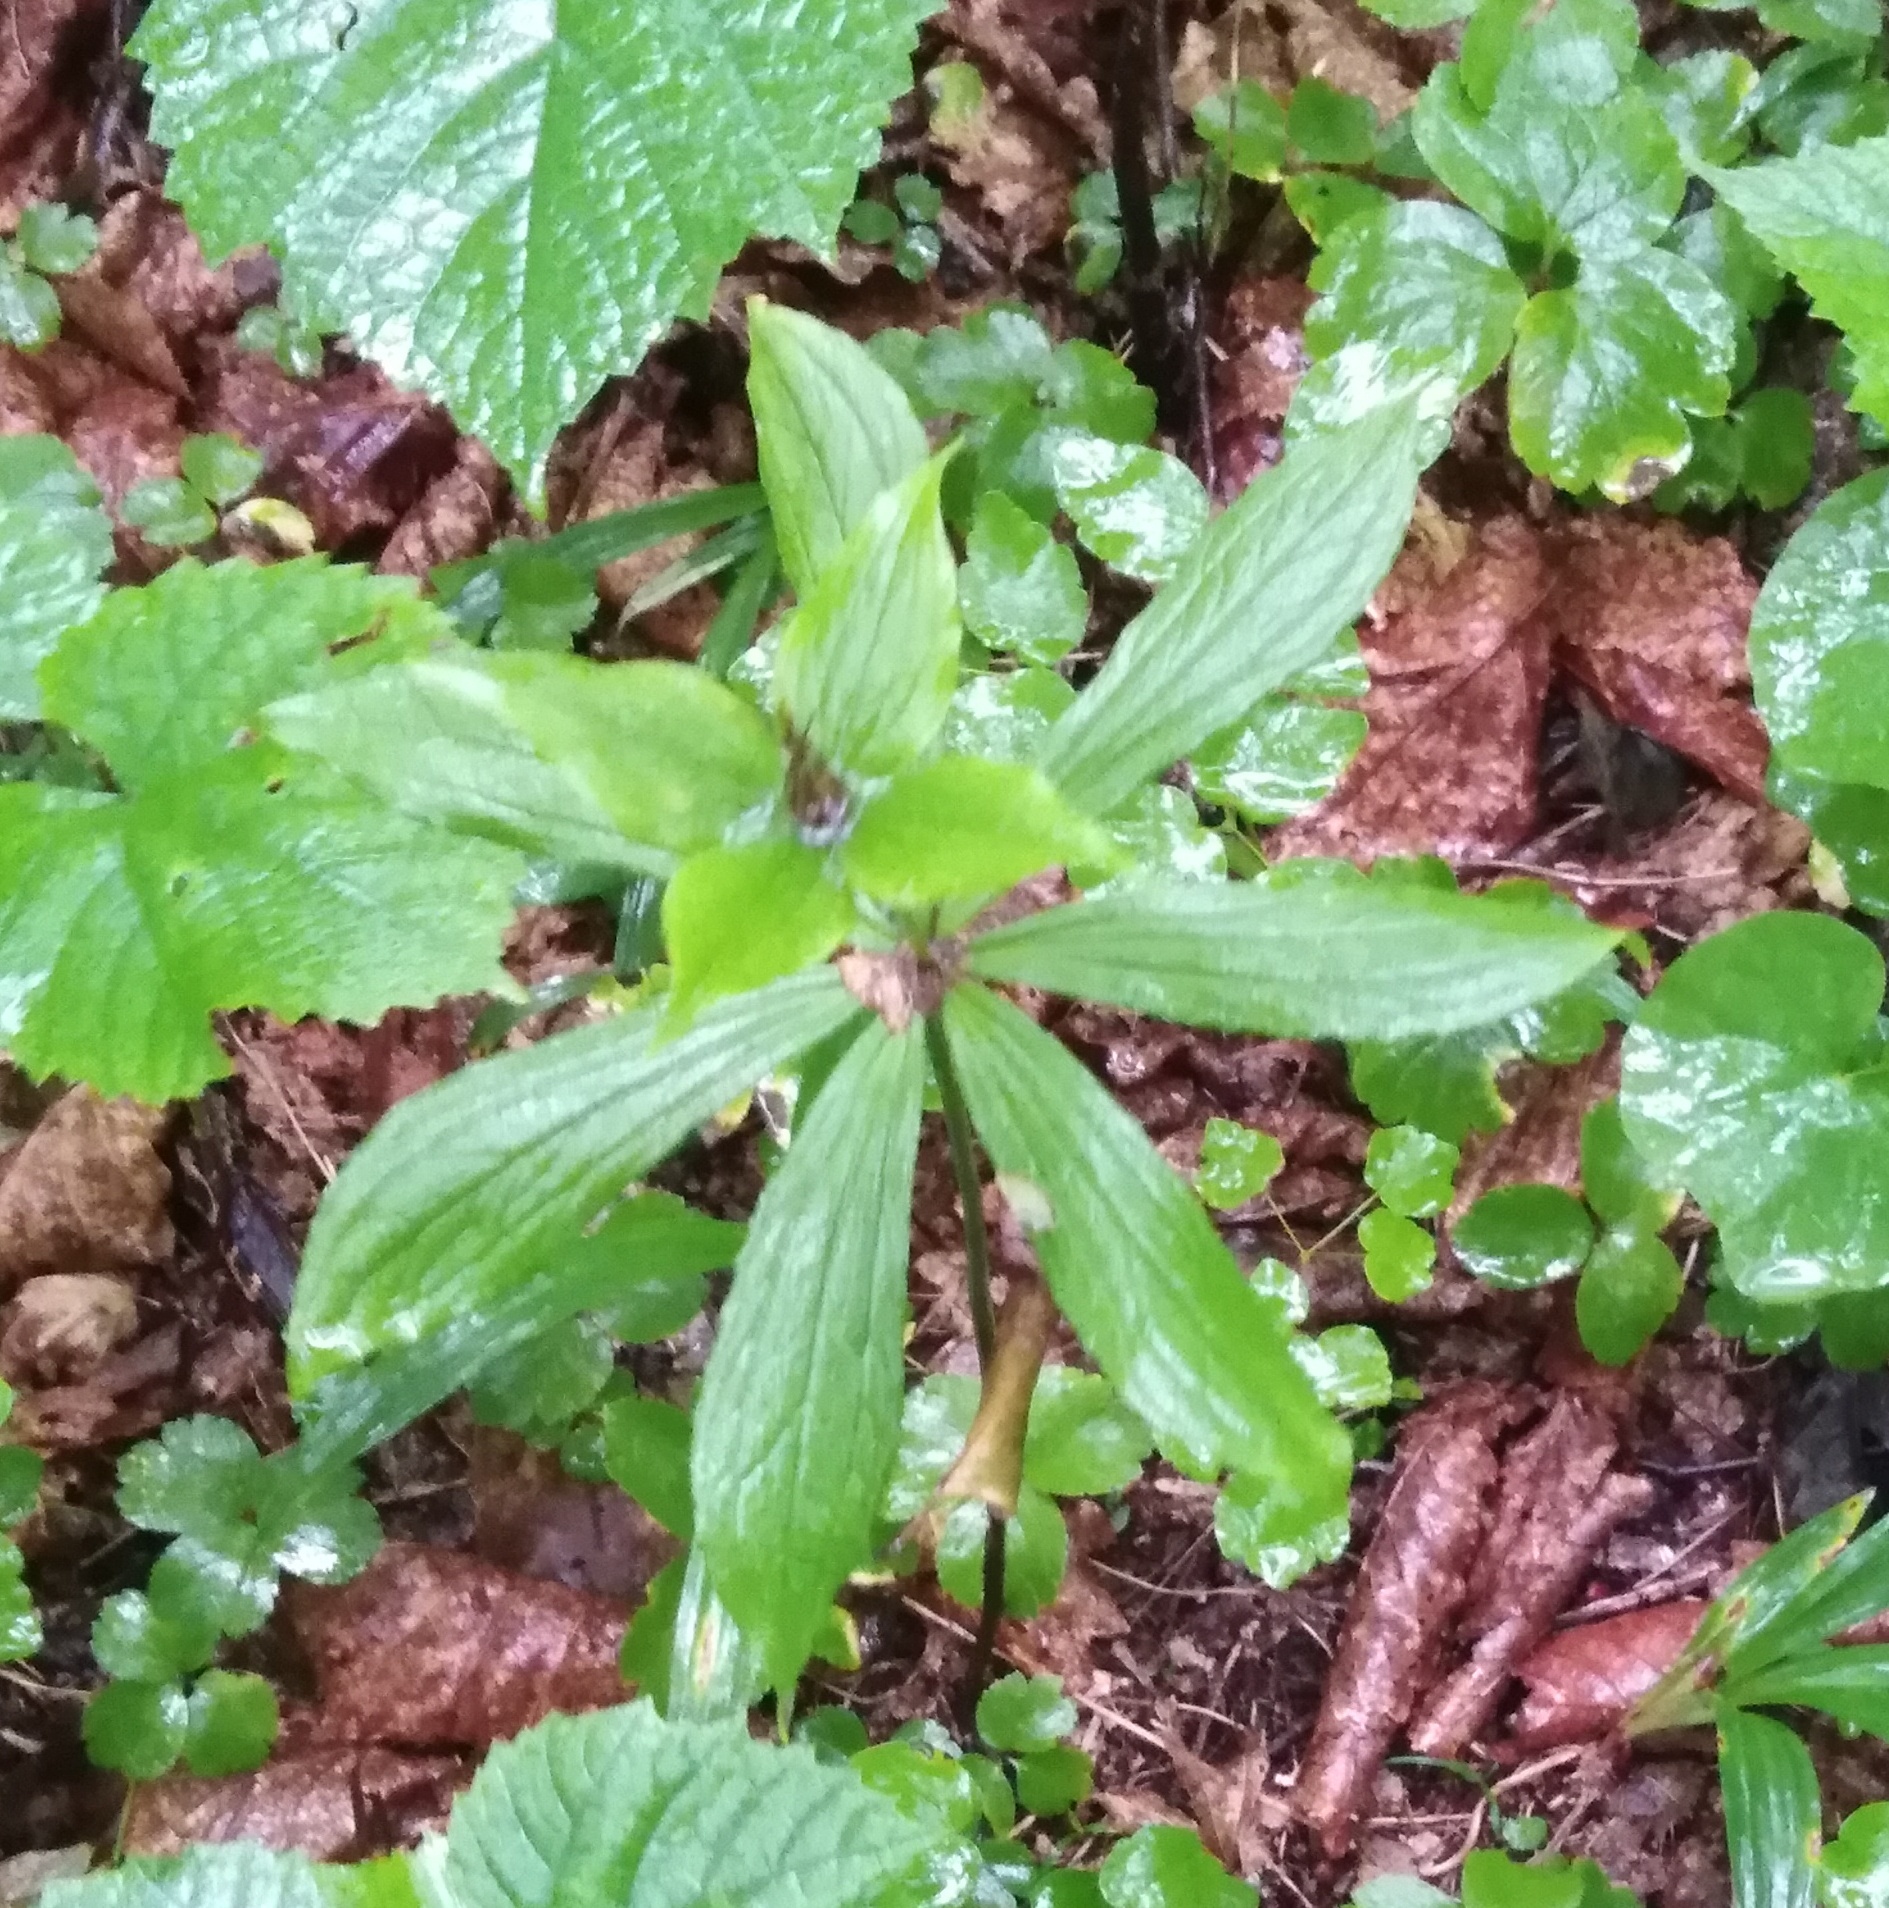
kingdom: Plantae
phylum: Tracheophyta
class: Liliopsida
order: Liliales
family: Melanthiaceae
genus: Paris
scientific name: Paris verticillata
